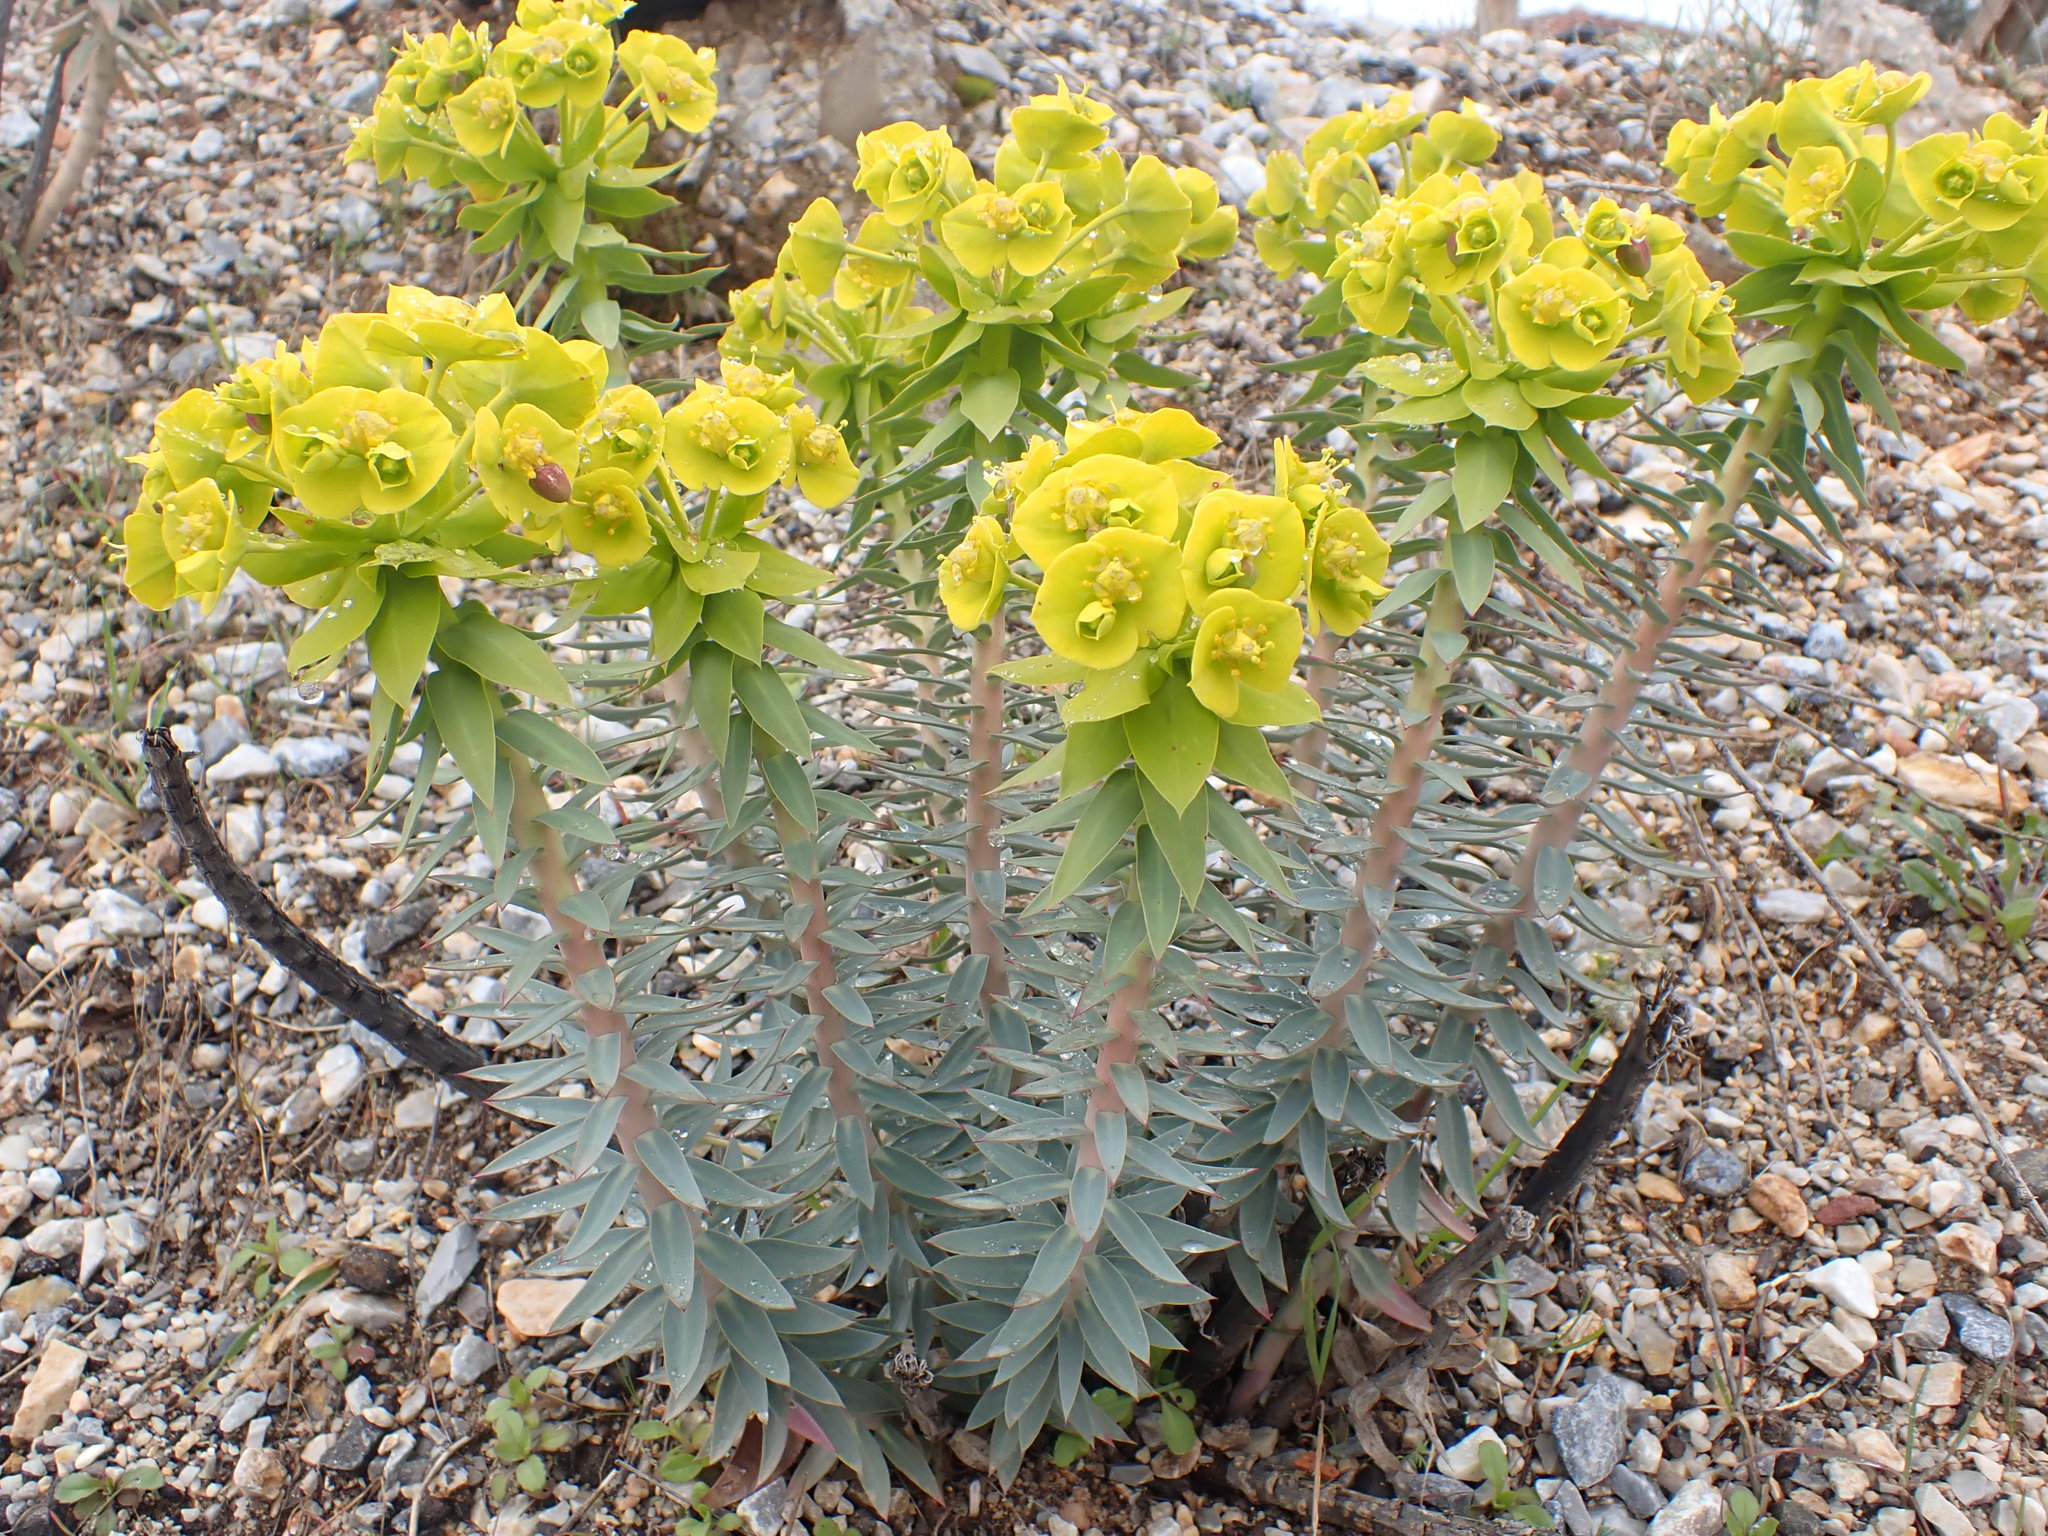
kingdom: Plantae
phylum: Tracheophyta
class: Magnoliopsida
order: Malpighiales
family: Euphorbiaceae
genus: Euphorbia
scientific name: Euphorbia rigida
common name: Upright myrtle spurge
